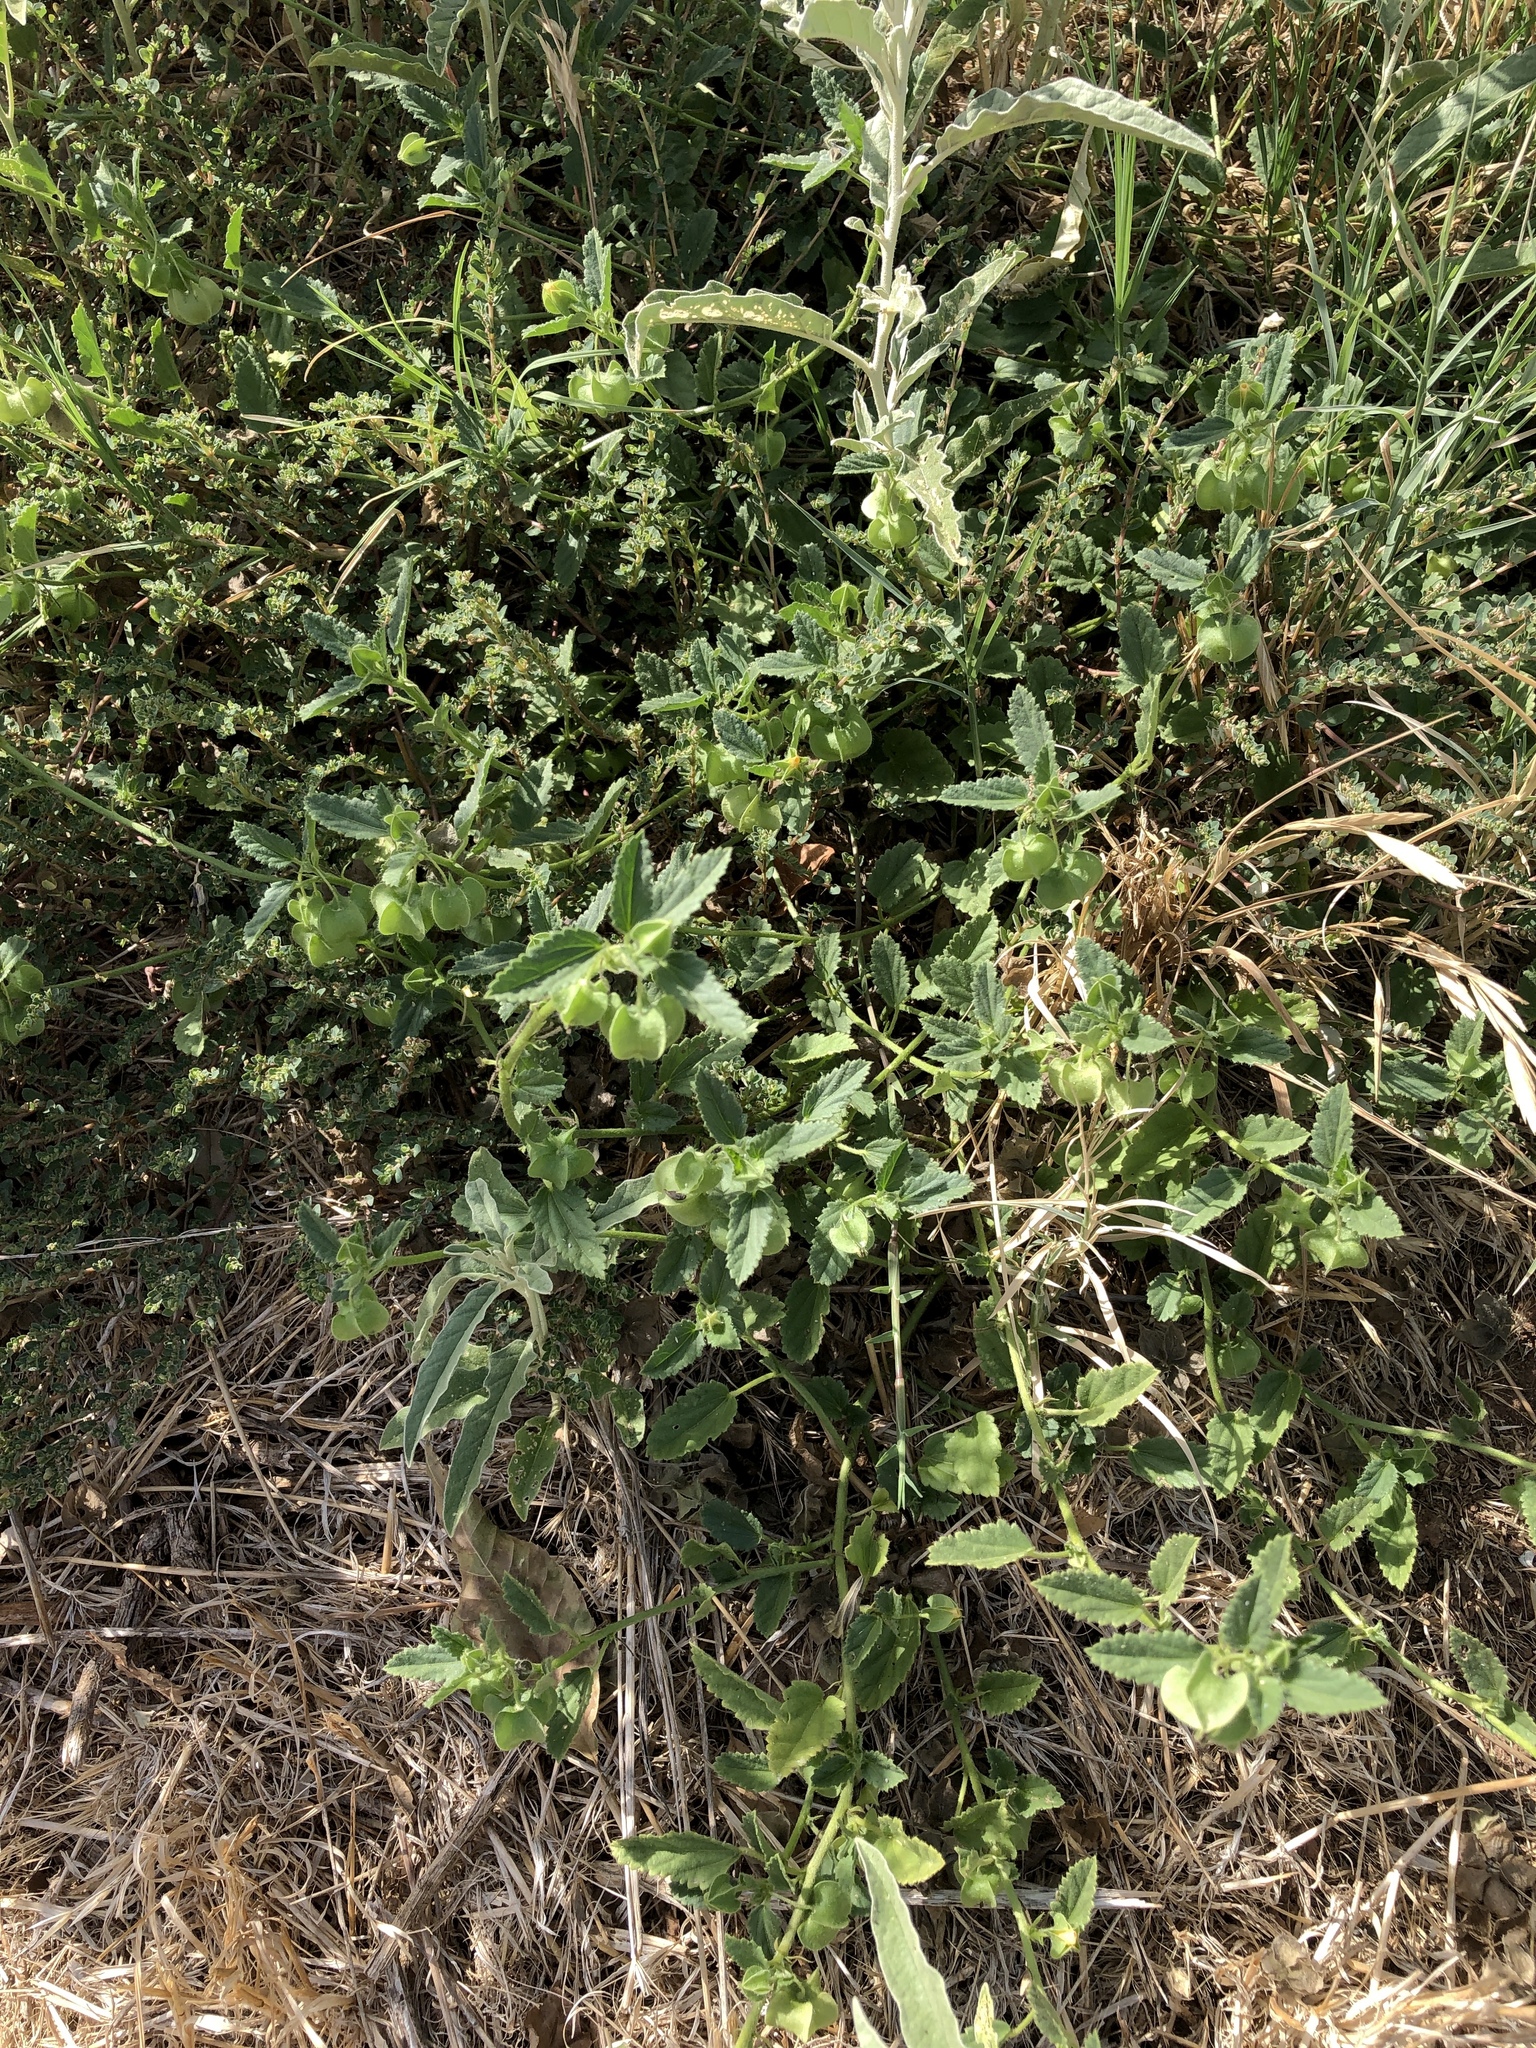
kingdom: Plantae
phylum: Tracheophyta
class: Magnoliopsida
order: Malvales
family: Malvaceae
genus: Rhynchosida
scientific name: Rhynchosida physocalyx
